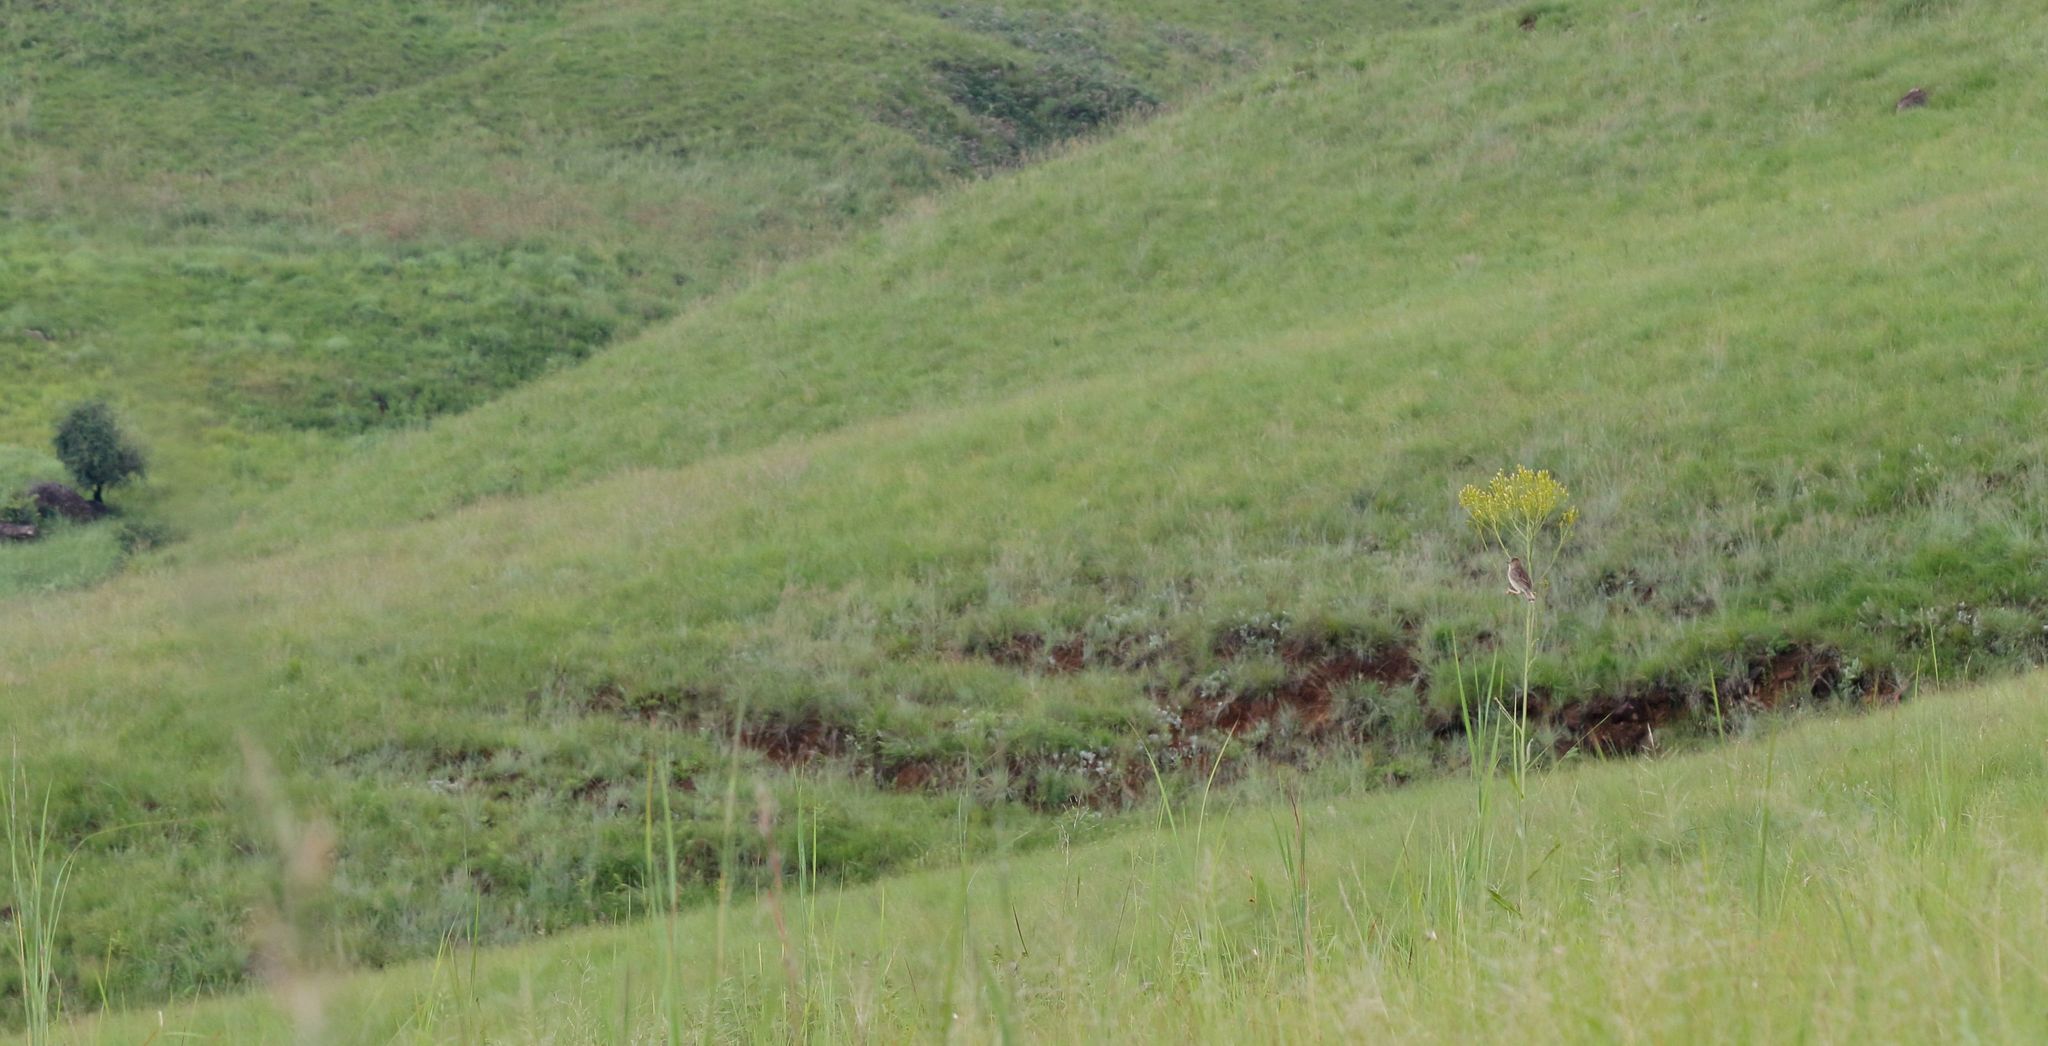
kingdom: Plantae
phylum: Tracheophyta
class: Magnoliopsida
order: Asterales
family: Asteraceae
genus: Senecio
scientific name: Senecio inornatus
